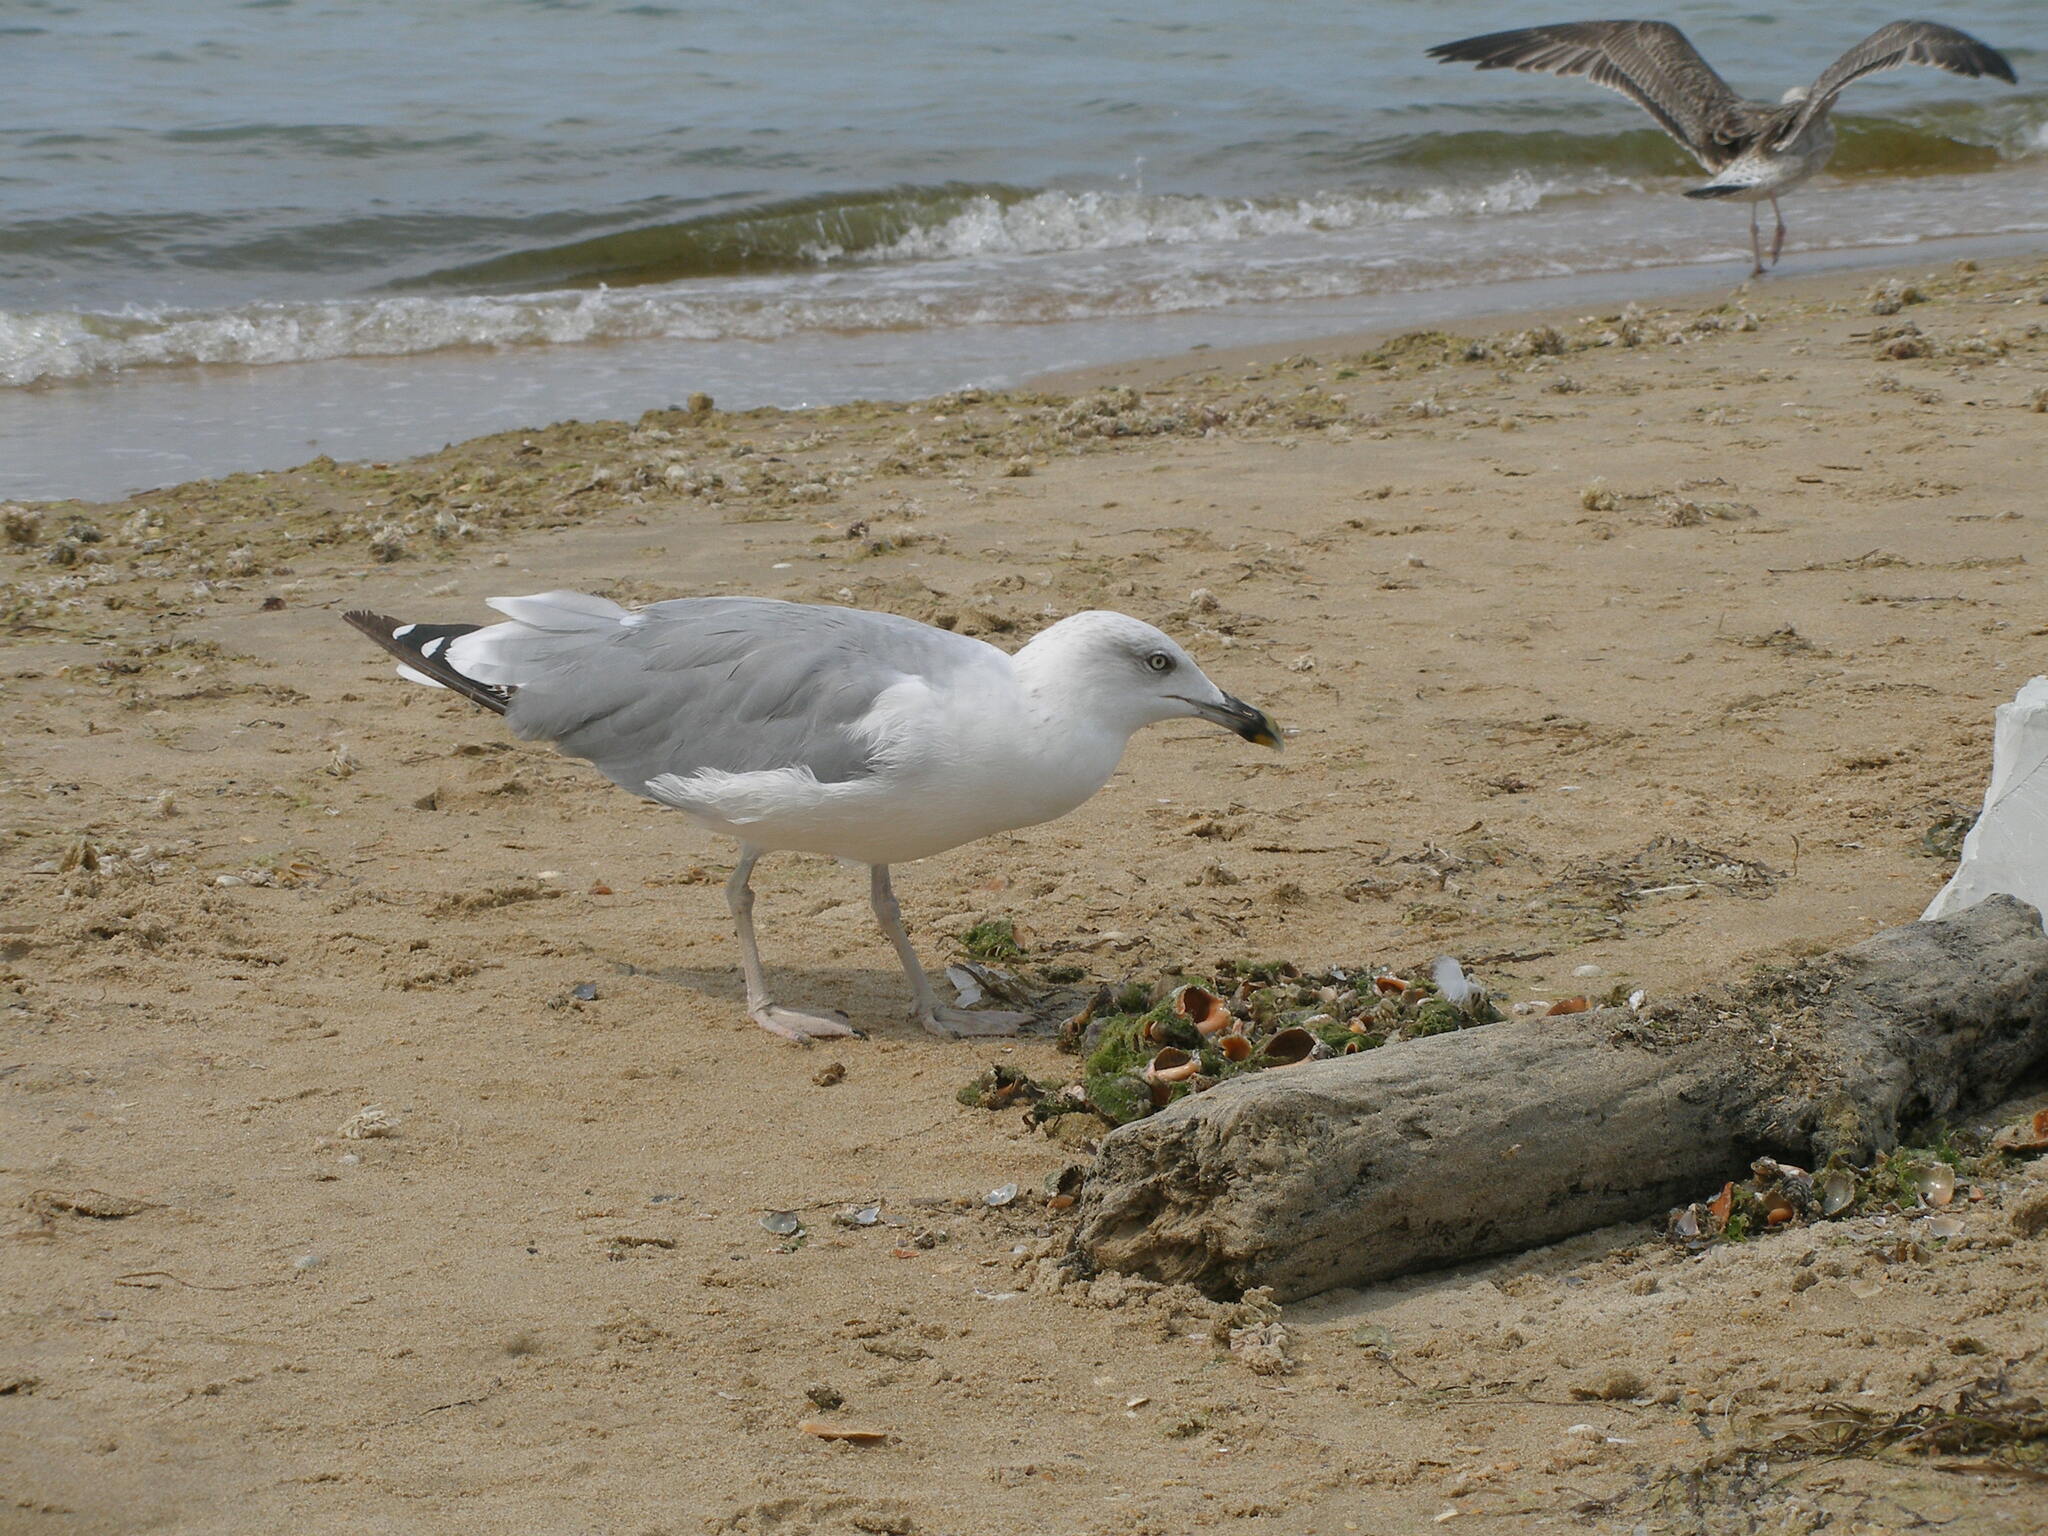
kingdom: Animalia
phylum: Chordata
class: Aves
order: Charadriiformes
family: Laridae
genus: Larus
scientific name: Larus michahellis
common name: Yellow-legged gull
